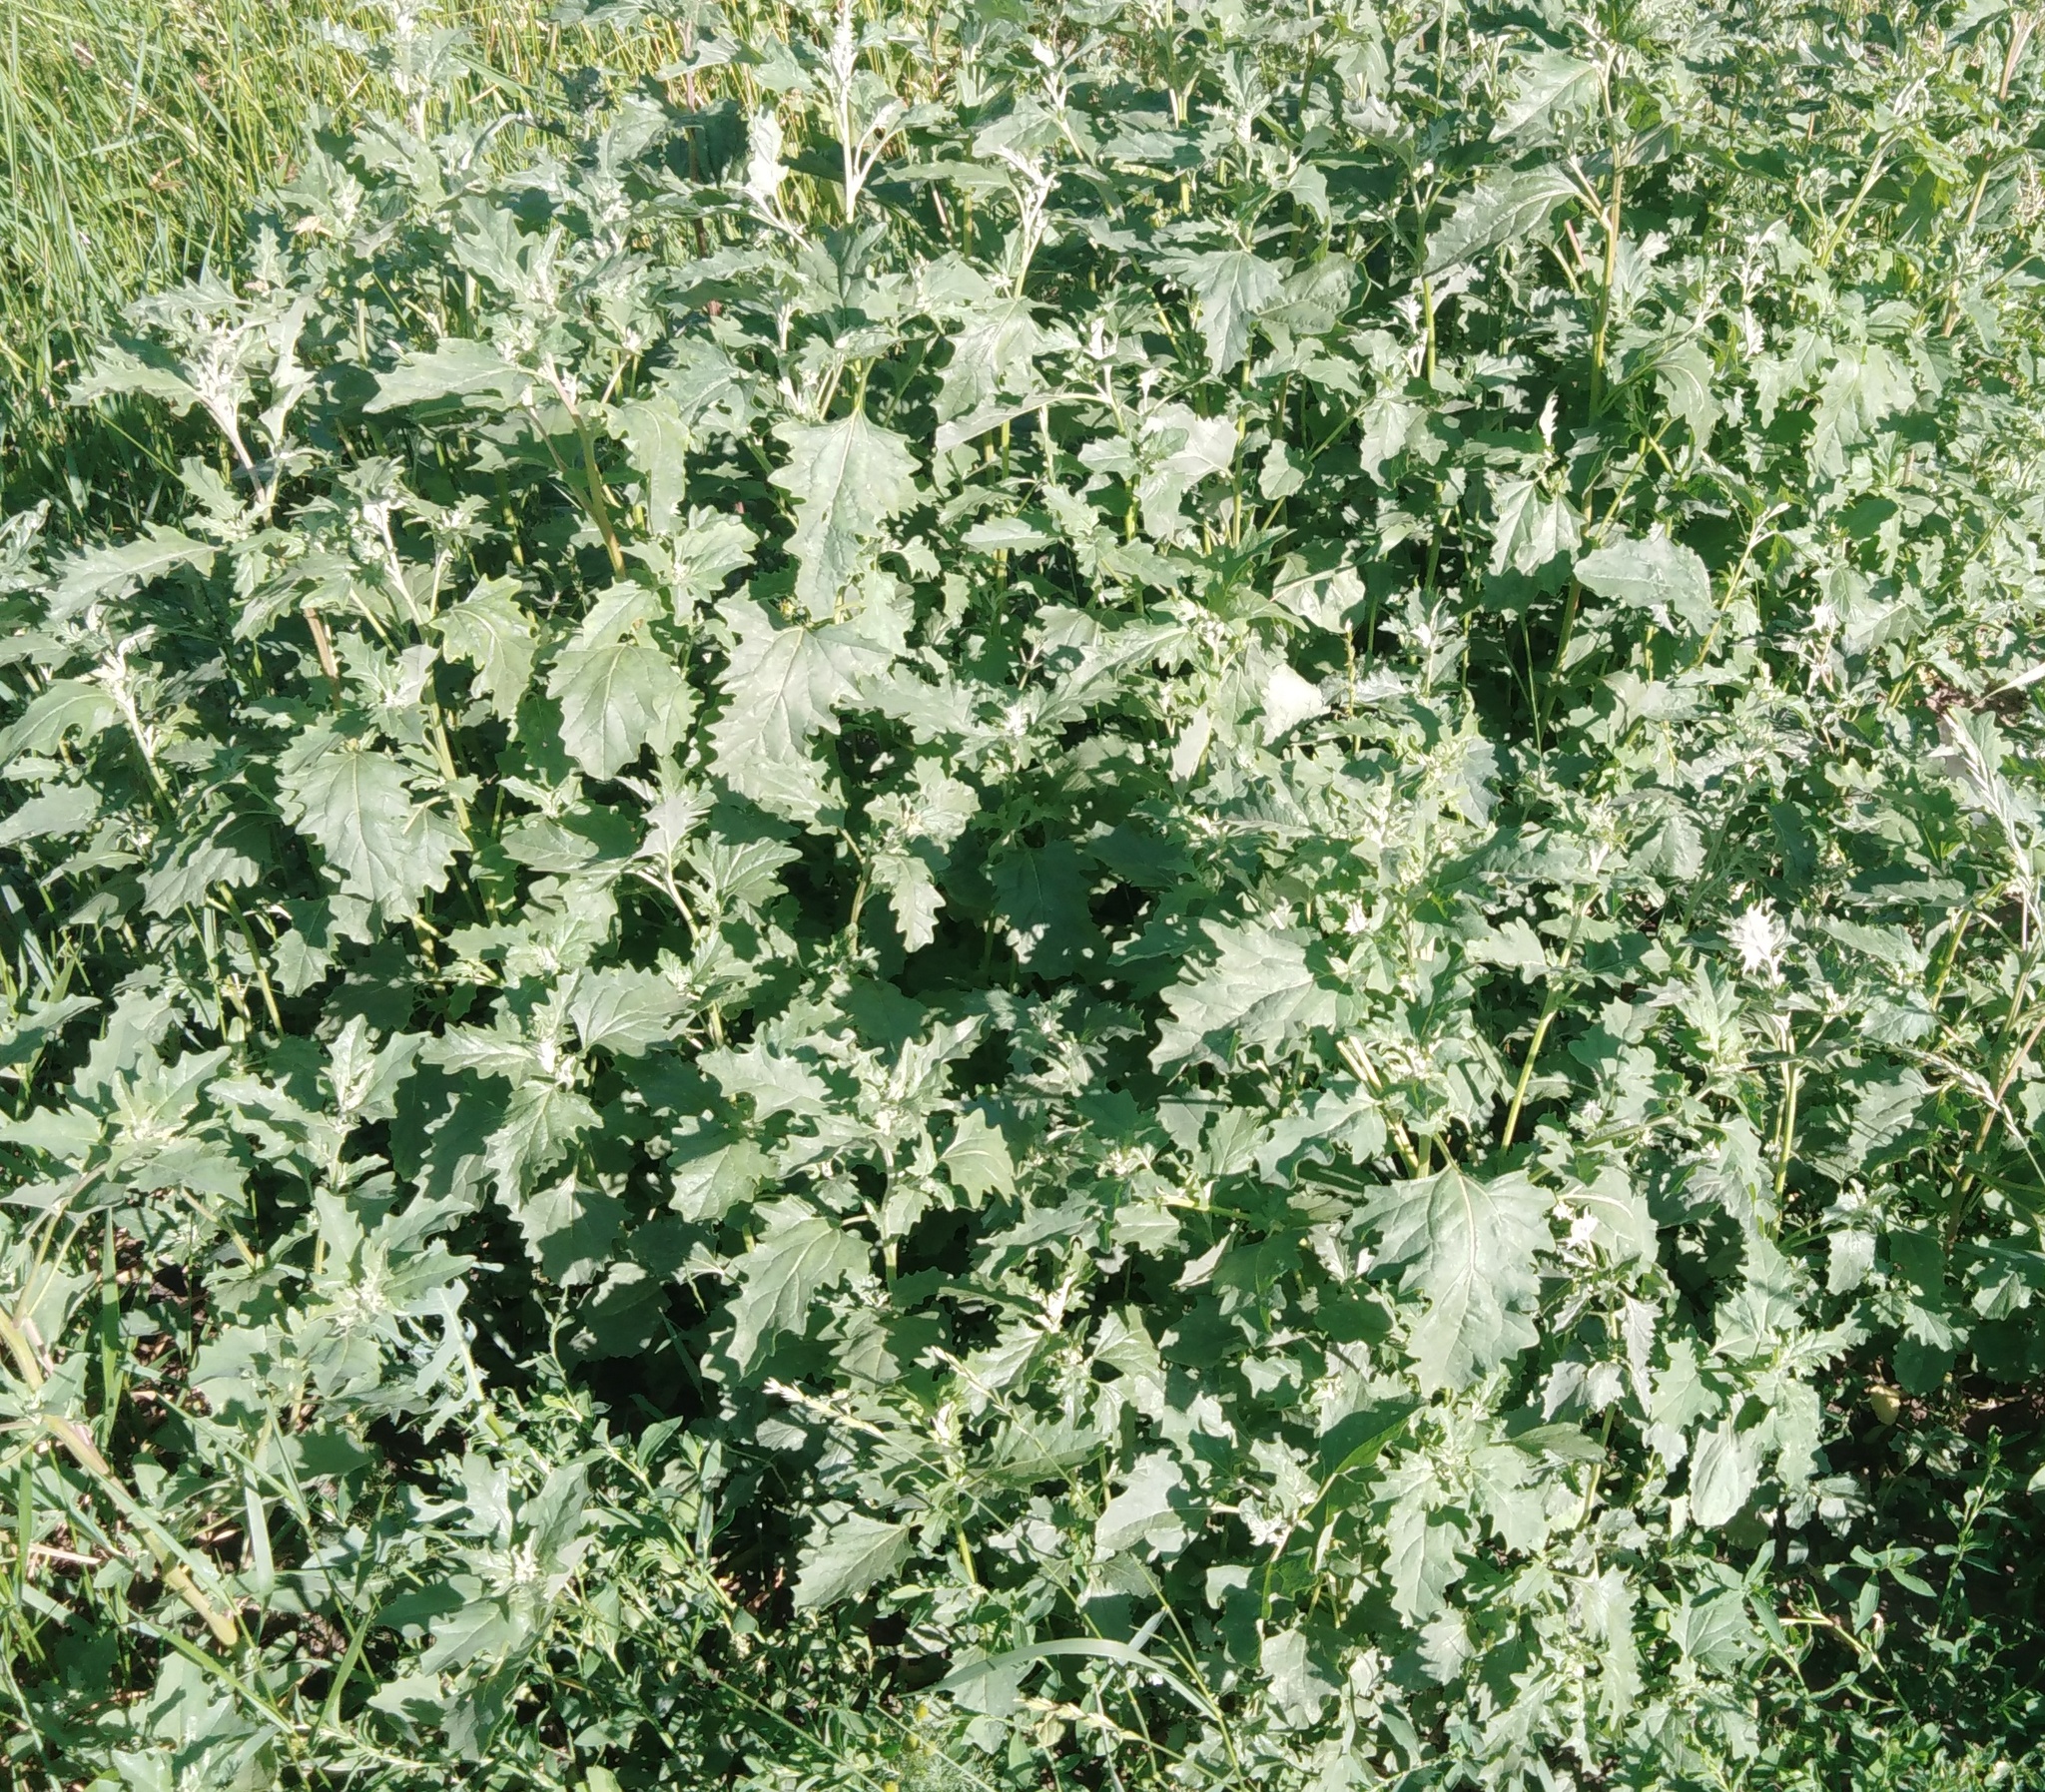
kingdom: Plantae
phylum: Tracheophyta
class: Magnoliopsida
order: Caryophyllales
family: Amaranthaceae
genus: Atriplex
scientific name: Atriplex tatarica
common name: Tatarian orache
